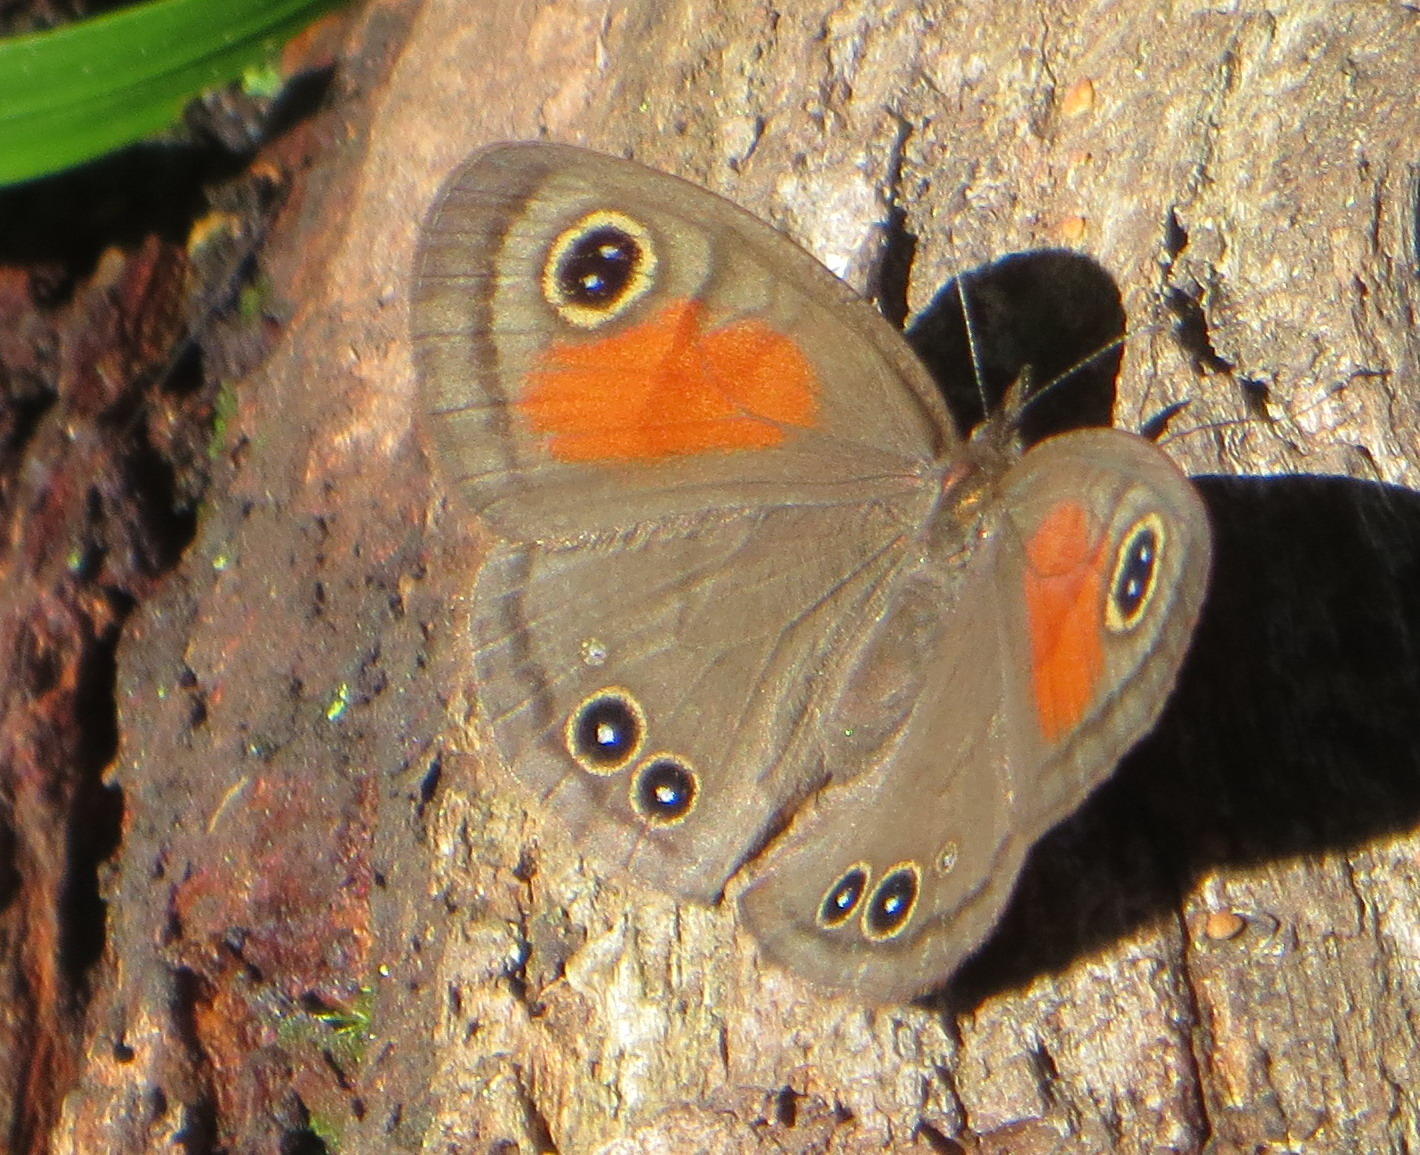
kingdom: Animalia
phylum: Arthropoda
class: Insecta
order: Lepidoptera
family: Nymphalidae
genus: Cassionympha
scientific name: Cassionympha cassius
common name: Rainforest brown
